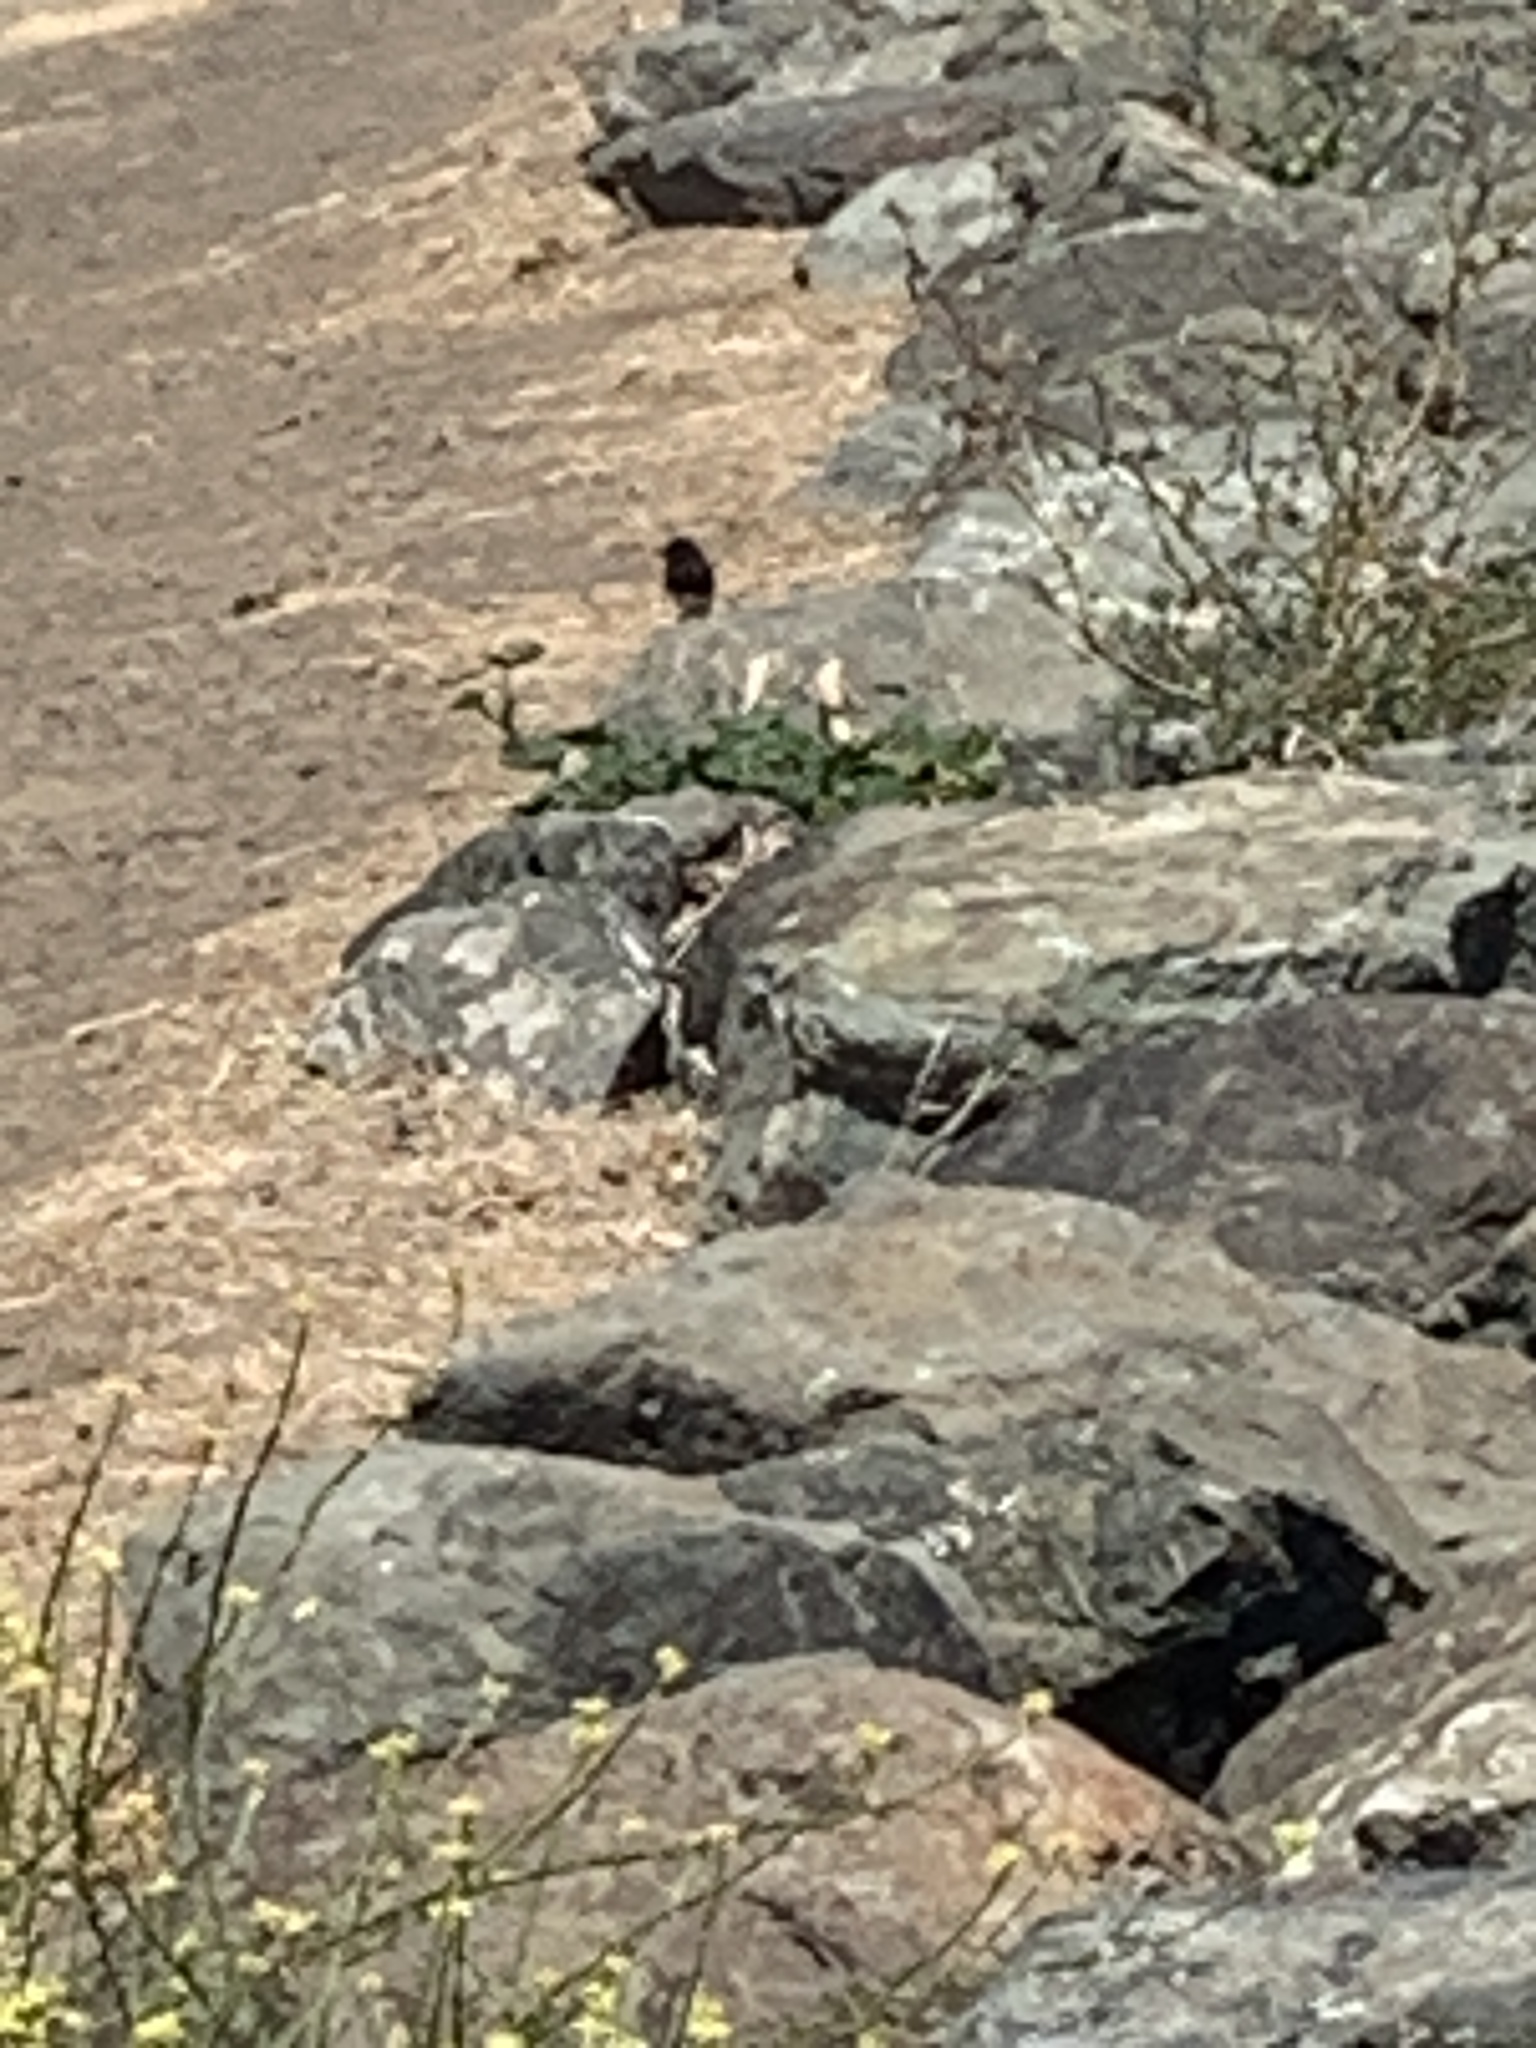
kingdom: Animalia
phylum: Chordata
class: Aves
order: Passeriformes
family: Tyrannidae
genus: Sayornis
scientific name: Sayornis nigricans
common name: Black phoebe
